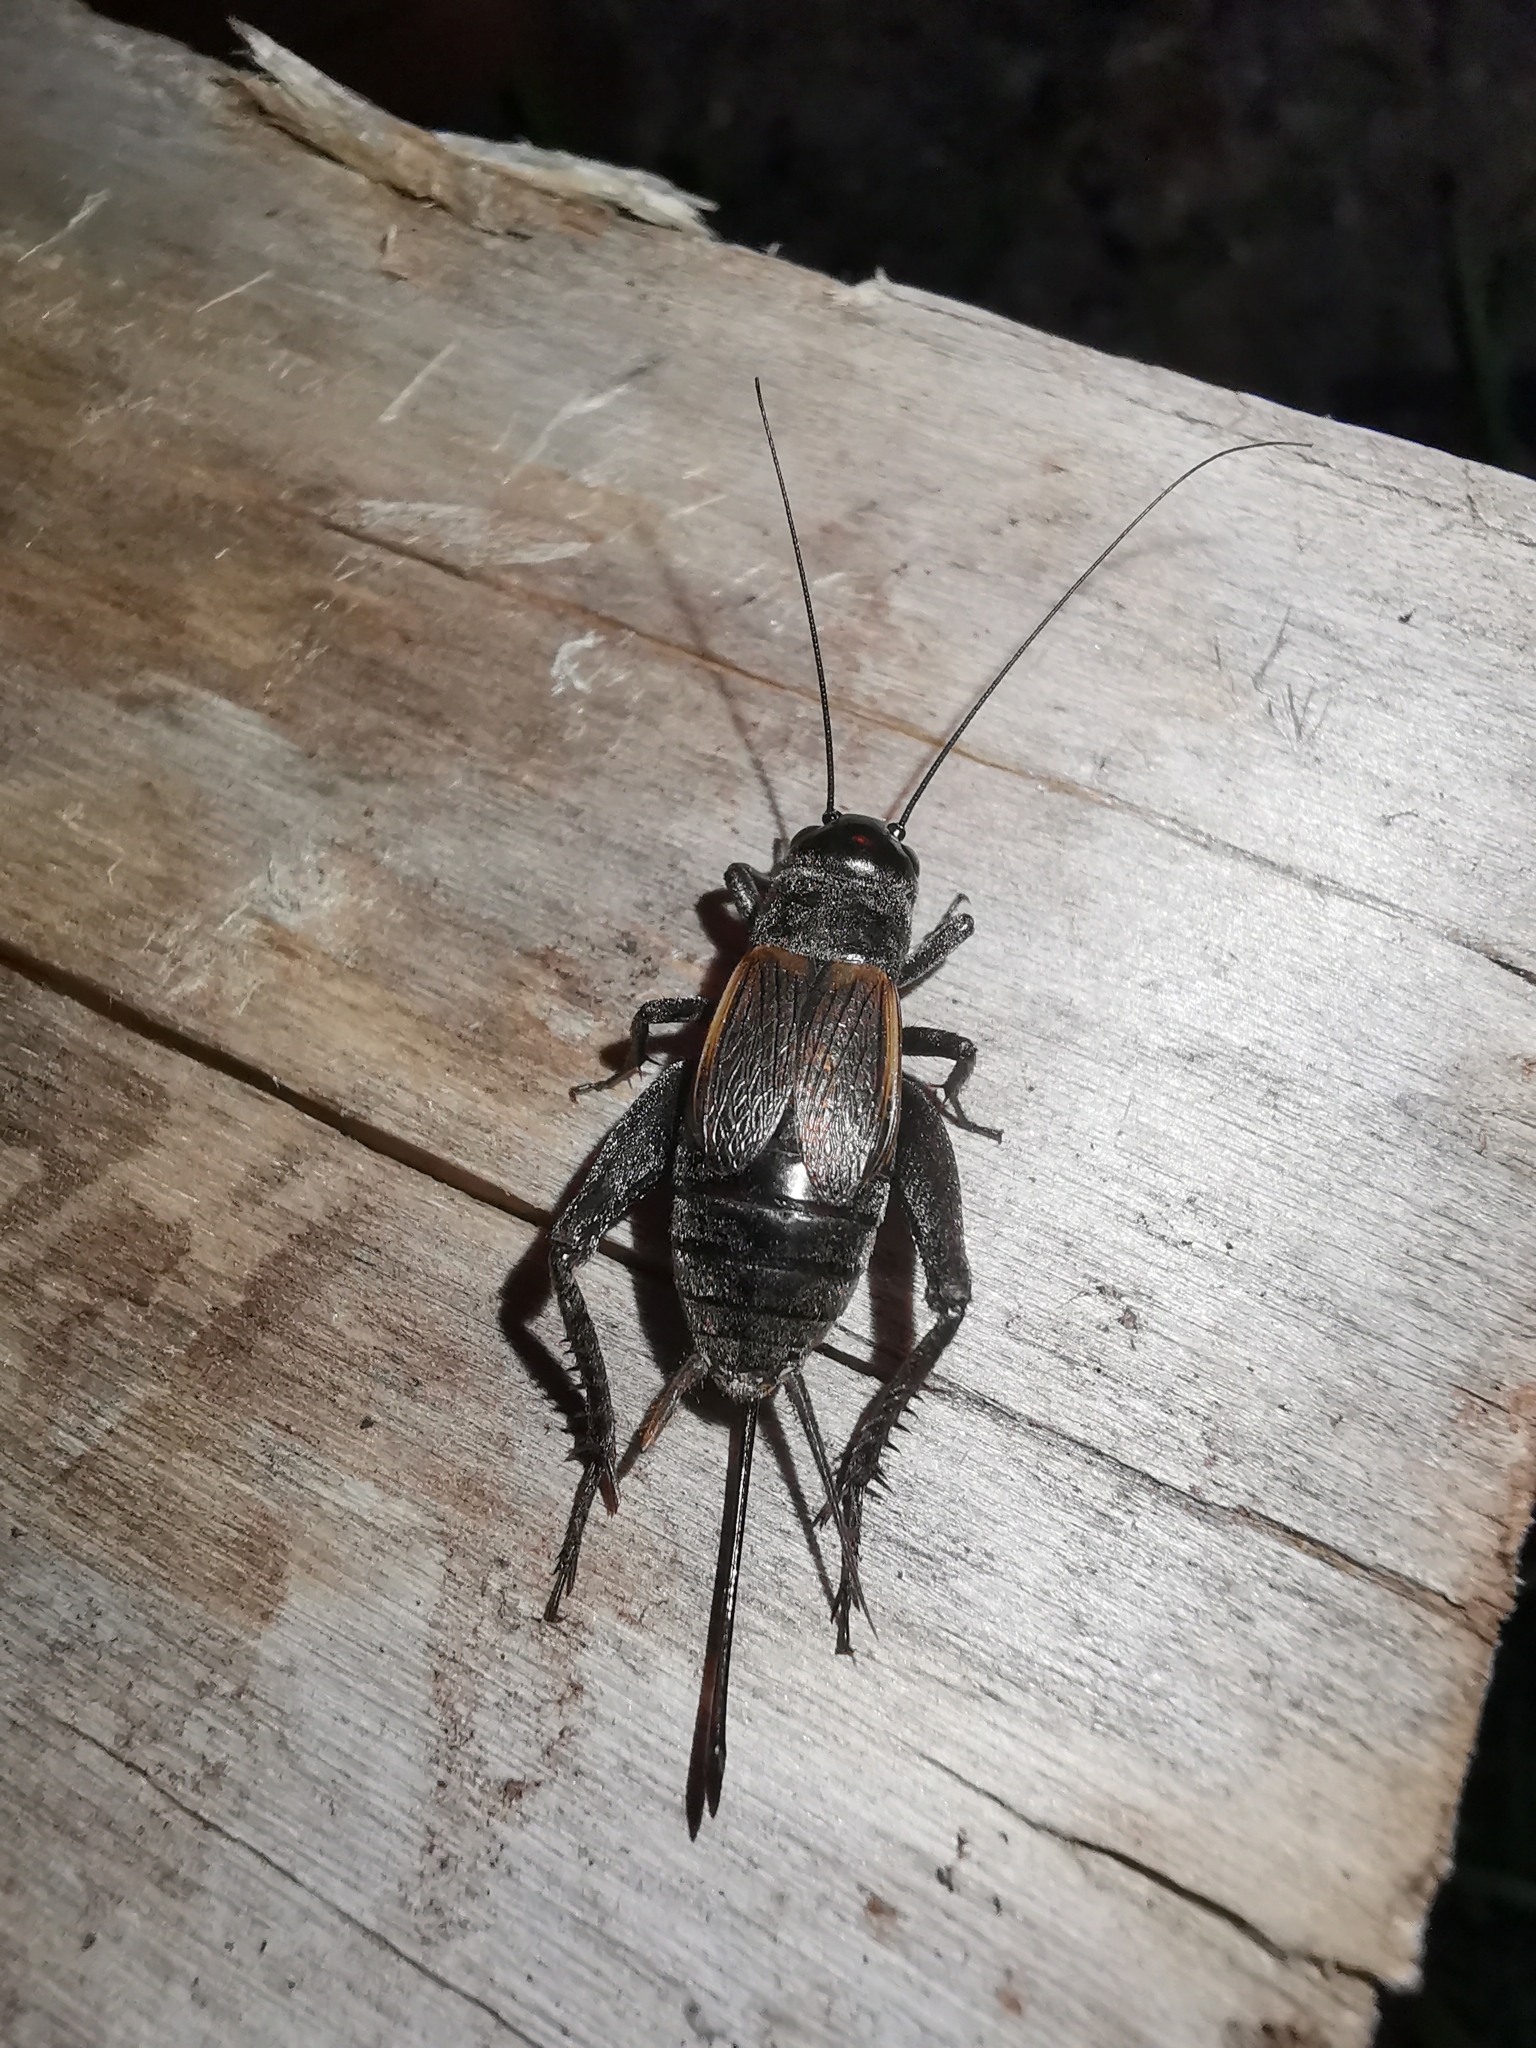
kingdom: Animalia
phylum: Arthropoda
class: Insecta
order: Orthoptera
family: Gryllidae
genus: Gryllus
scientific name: Gryllus pennsylvanicus
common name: Fall field cricket
